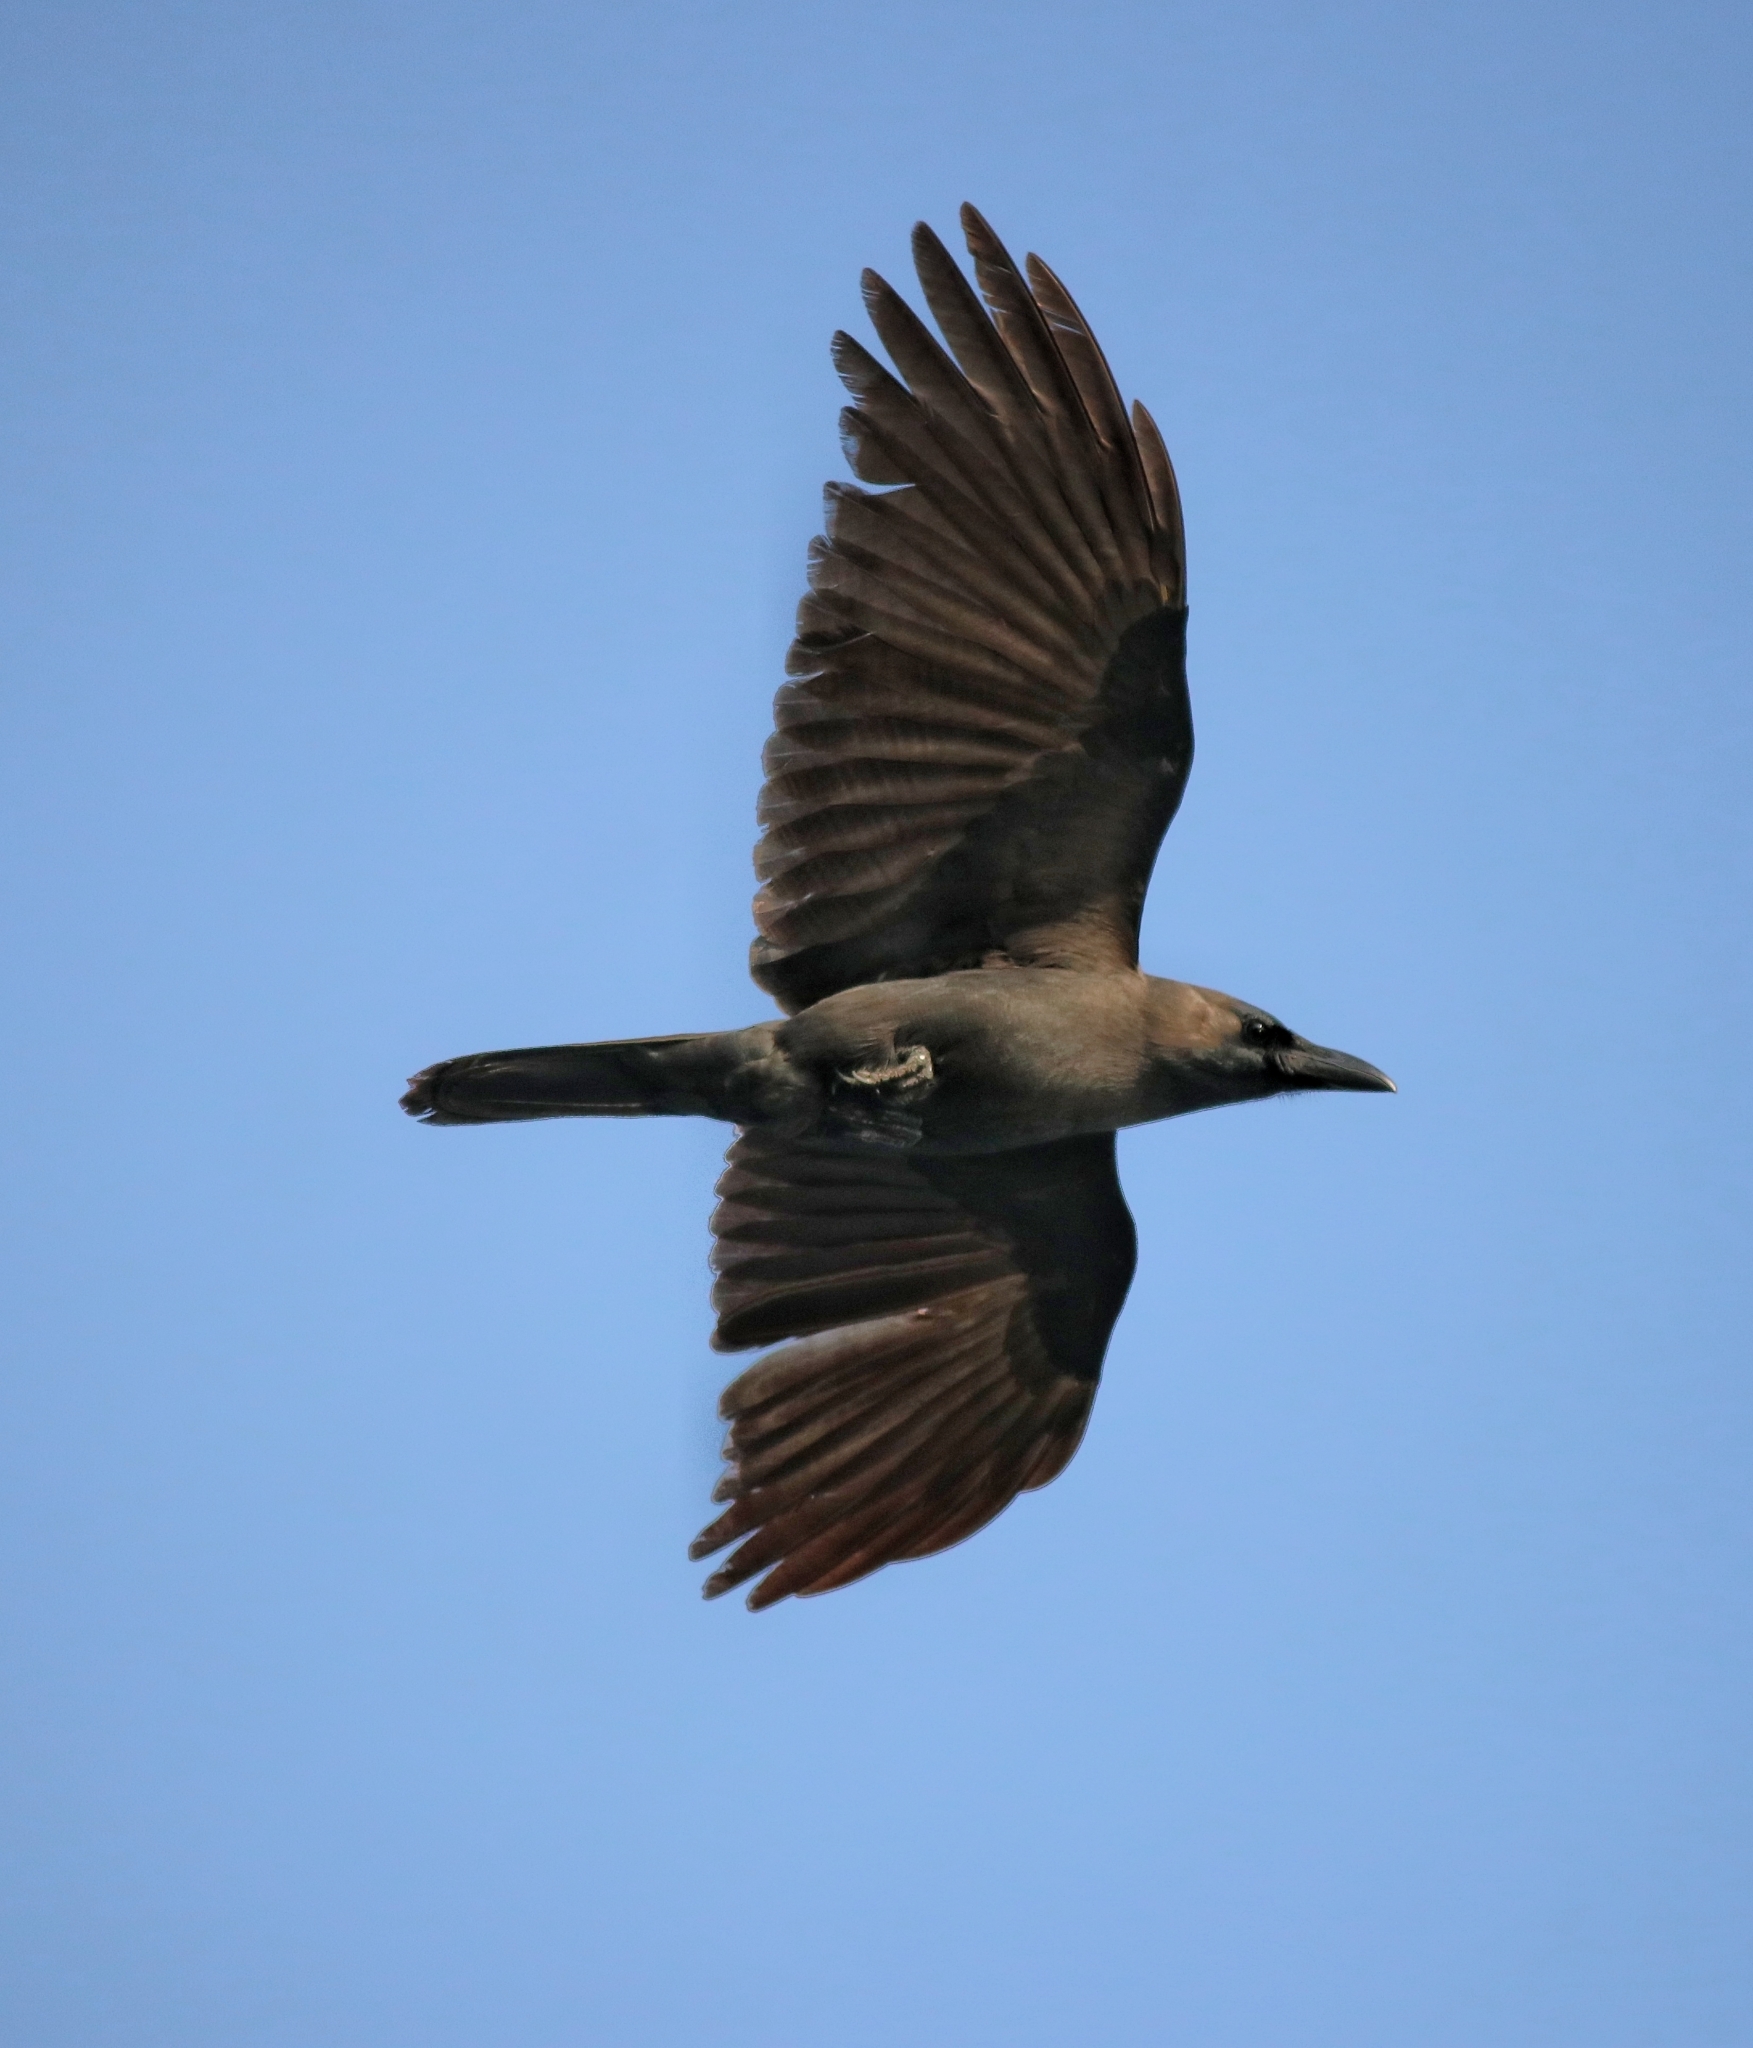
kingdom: Animalia
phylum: Chordata
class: Aves
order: Passeriformes
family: Corvidae
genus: Corvus
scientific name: Corvus splendens
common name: House crow
